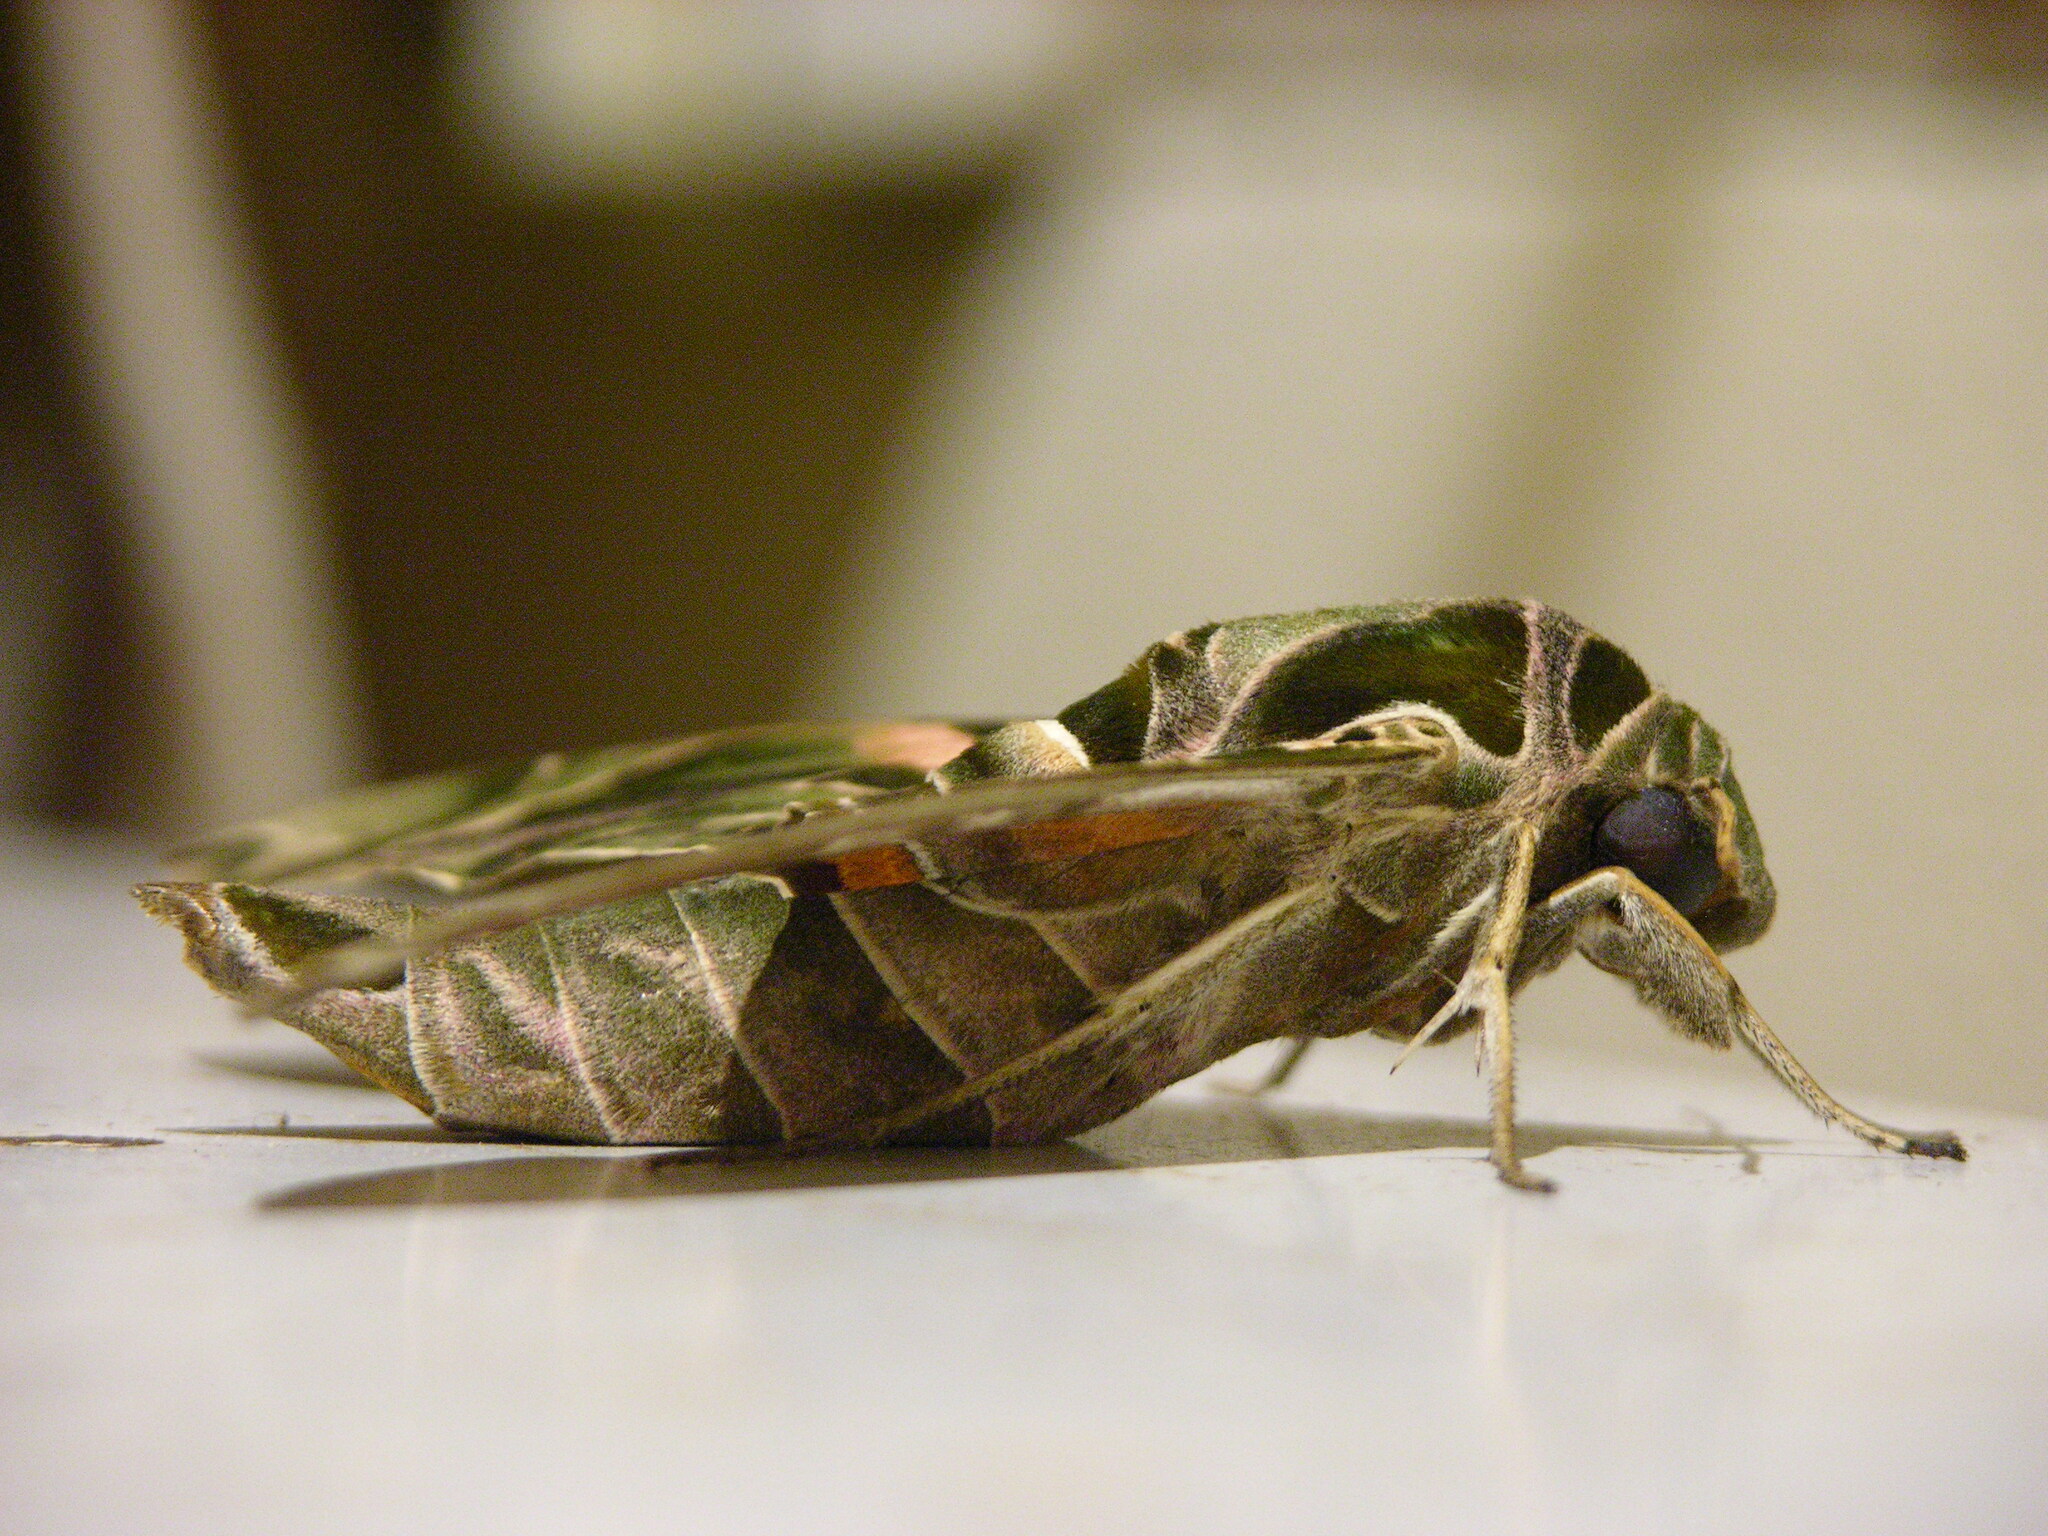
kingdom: Animalia
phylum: Arthropoda
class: Insecta
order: Lepidoptera
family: Sphingidae
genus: Daphnis
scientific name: Daphnis nerii
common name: Oleander hawk-moth
